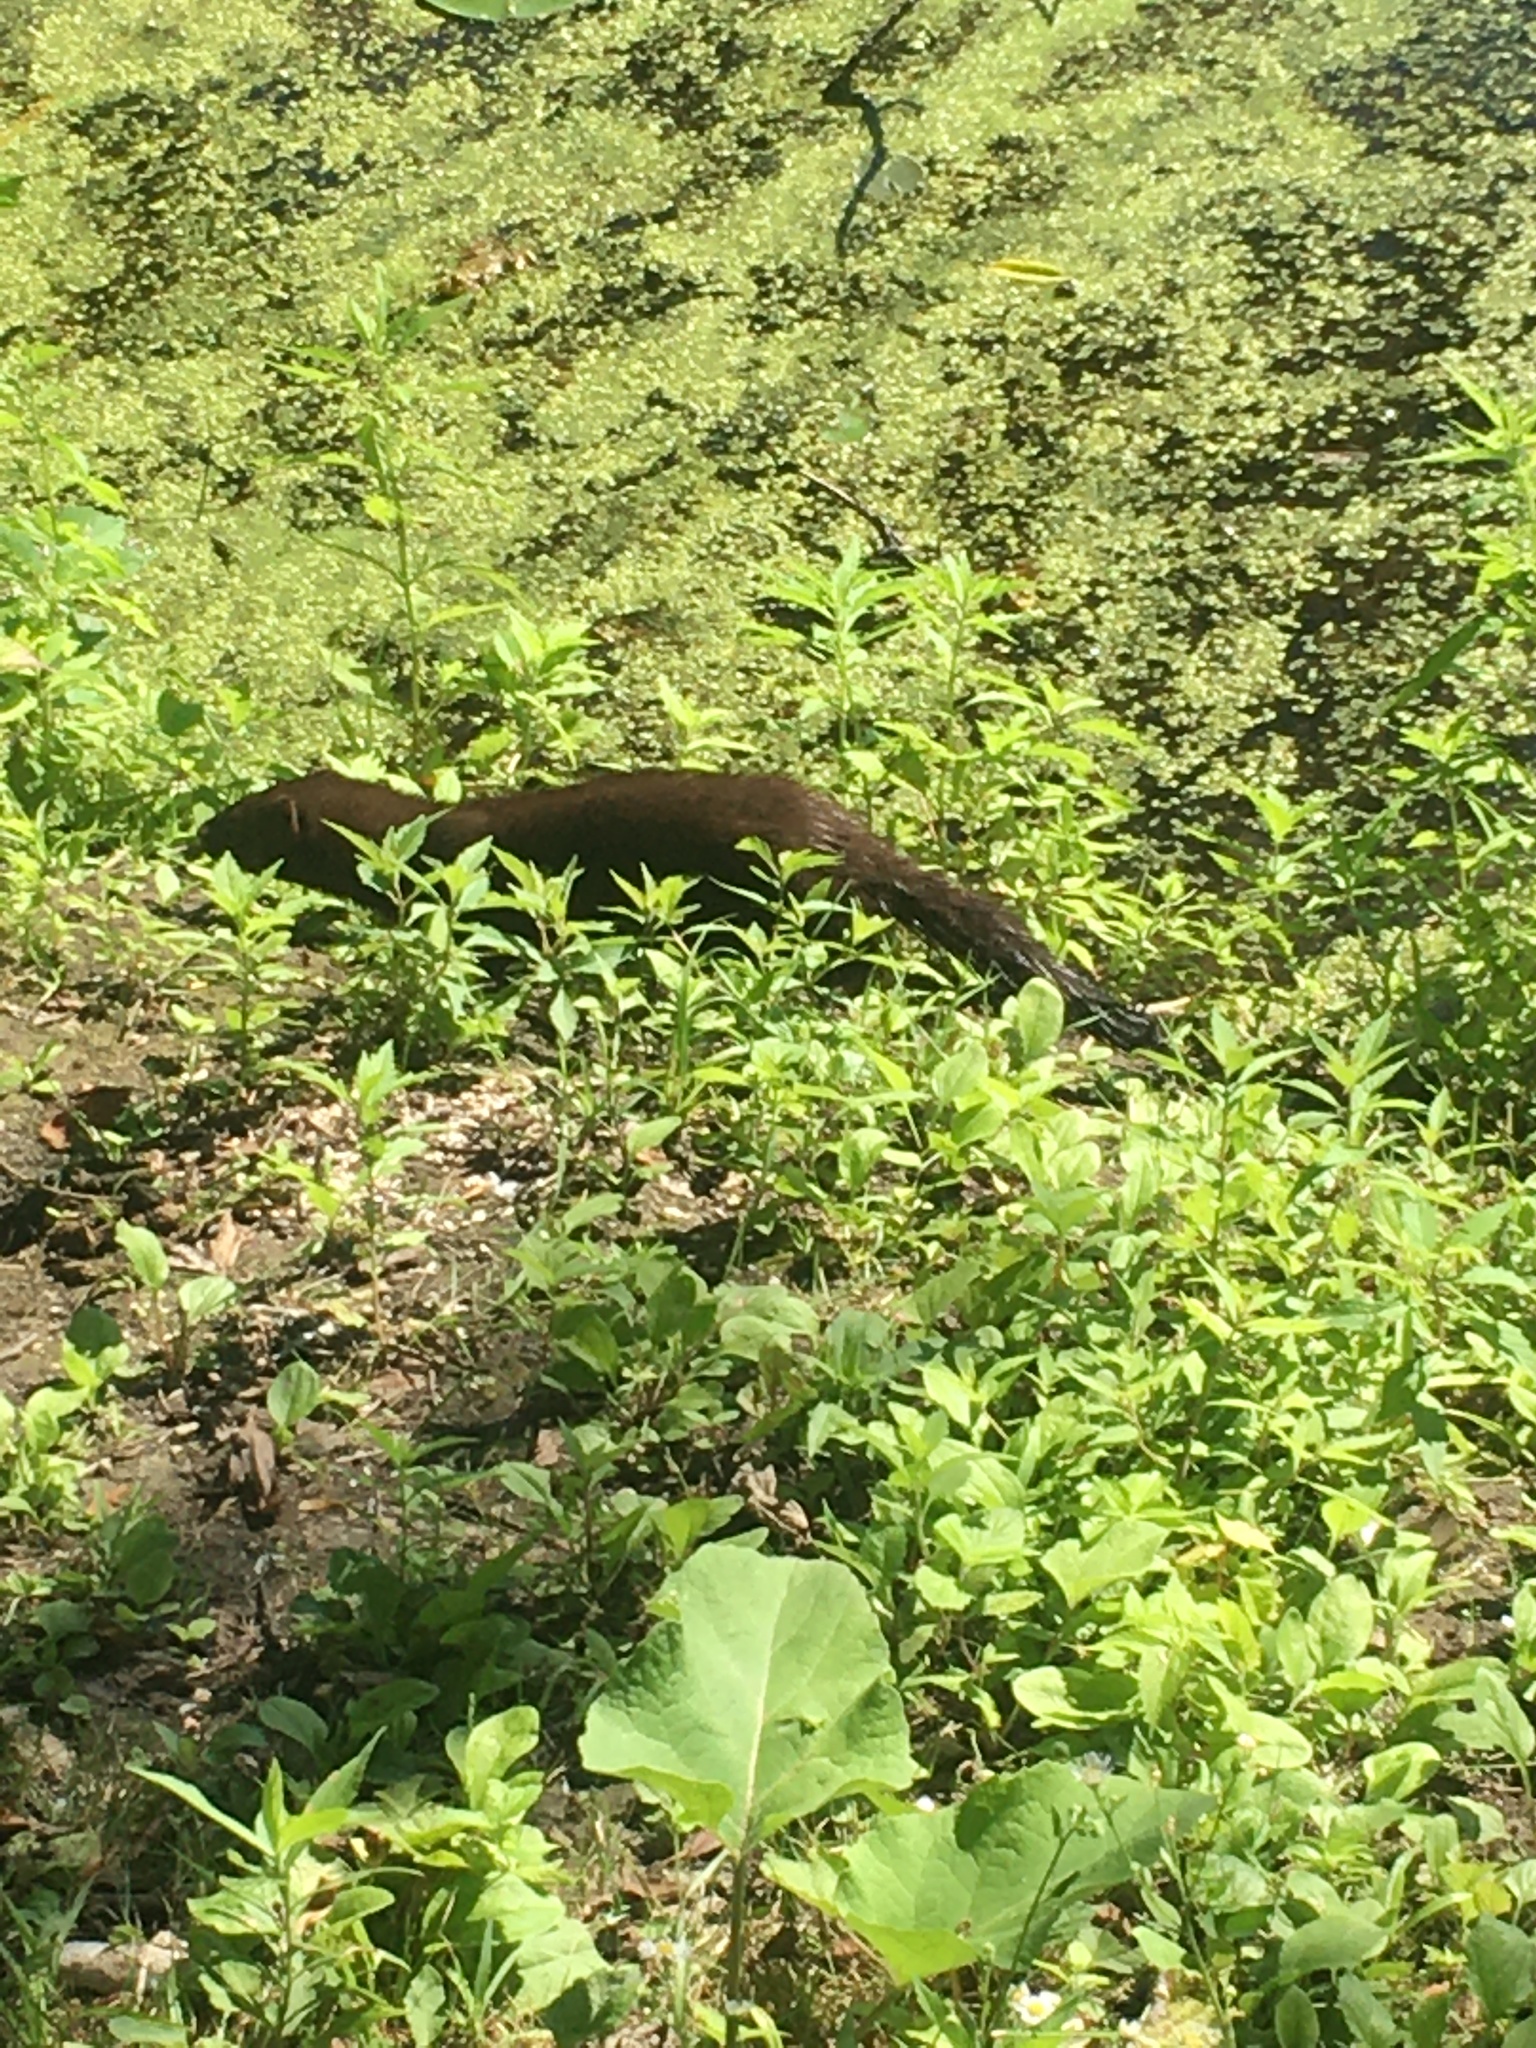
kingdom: Animalia
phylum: Chordata
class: Mammalia
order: Carnivora
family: Mustelidae
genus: Mustela
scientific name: Mustela
